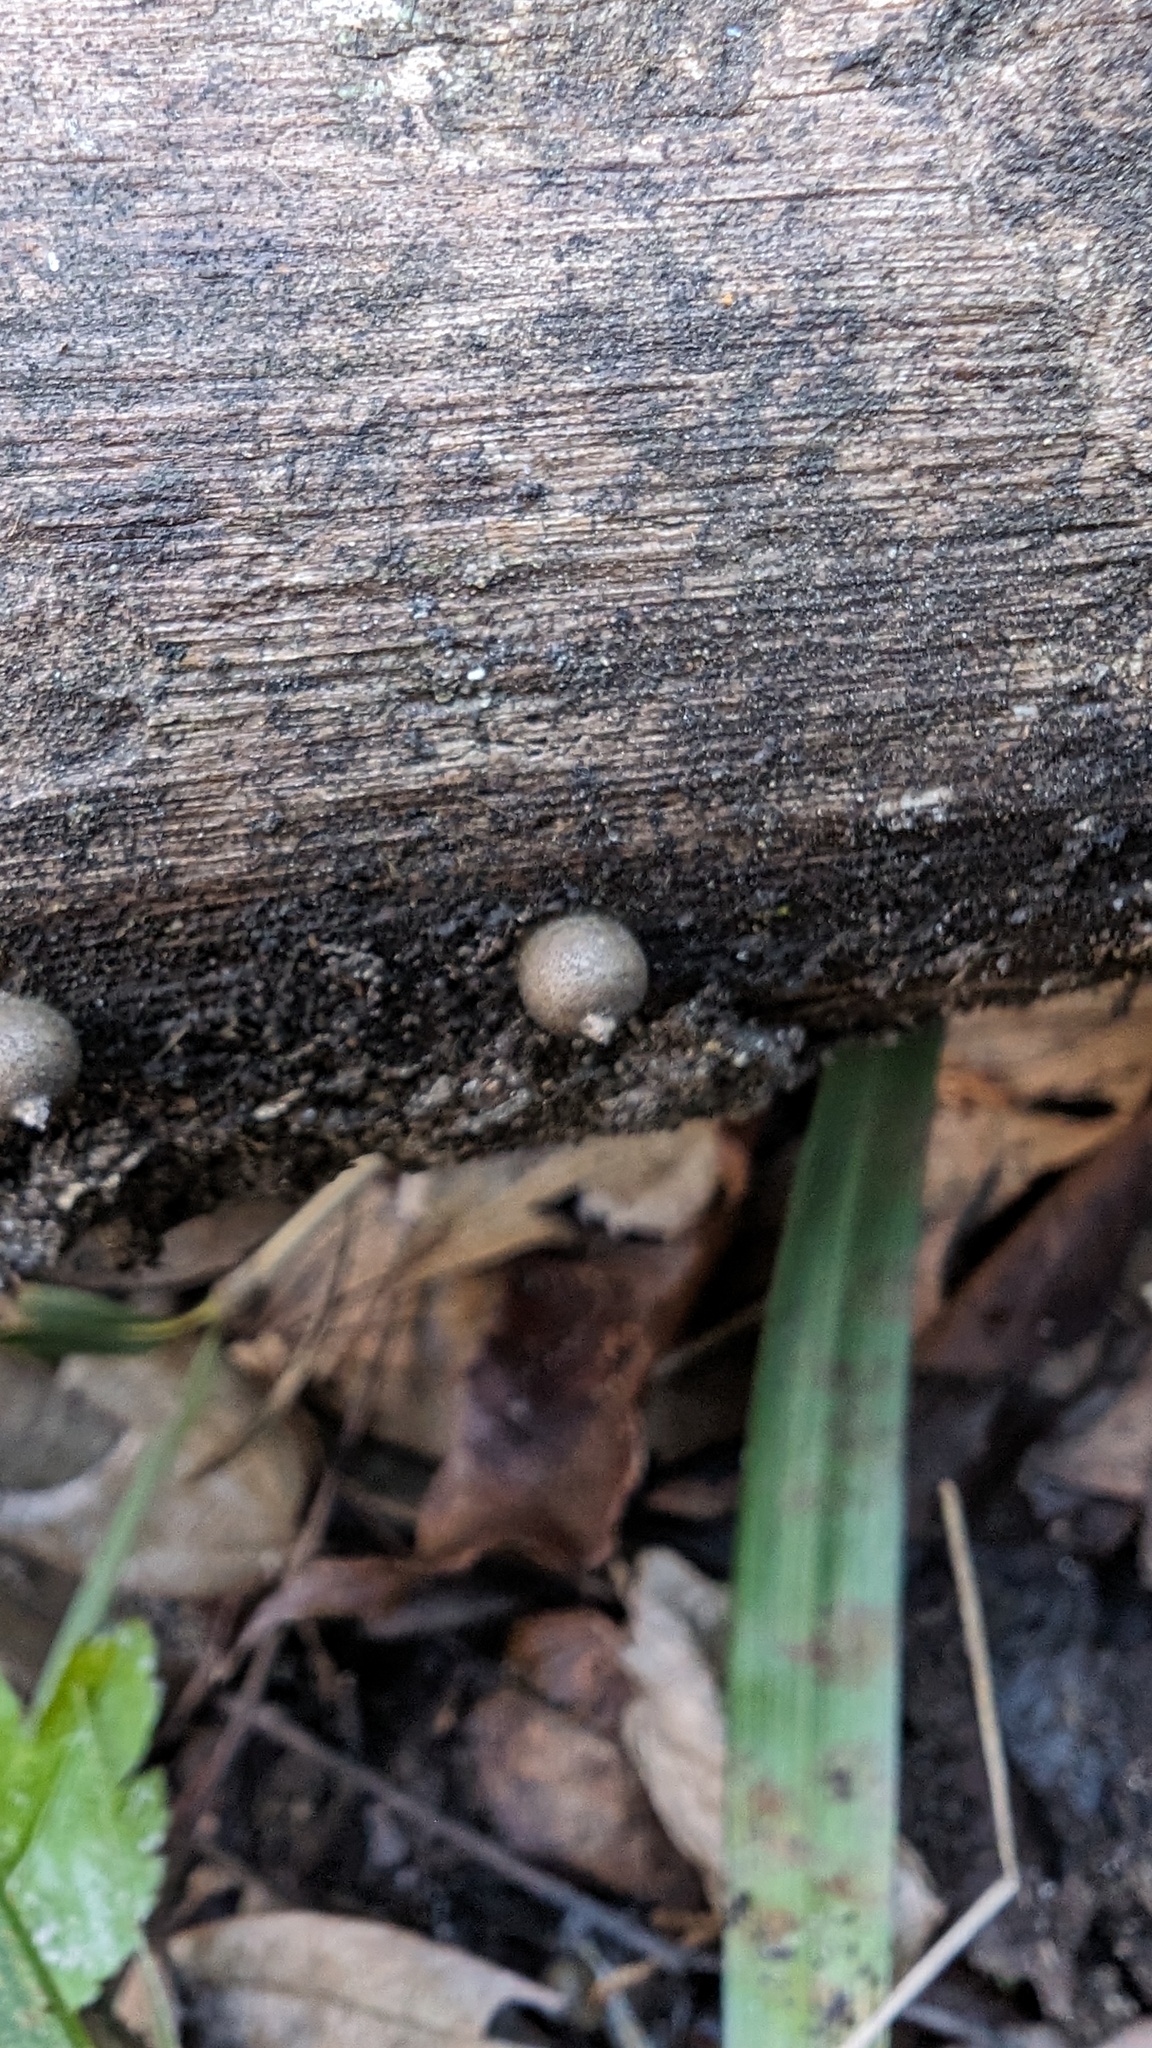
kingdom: Protozoa
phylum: Mycetozoa
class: Myxomycetes
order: Cribrariales
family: Tubiferaceae
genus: Lycogala
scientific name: Lycogala epidendrum
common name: Wolf's milk
